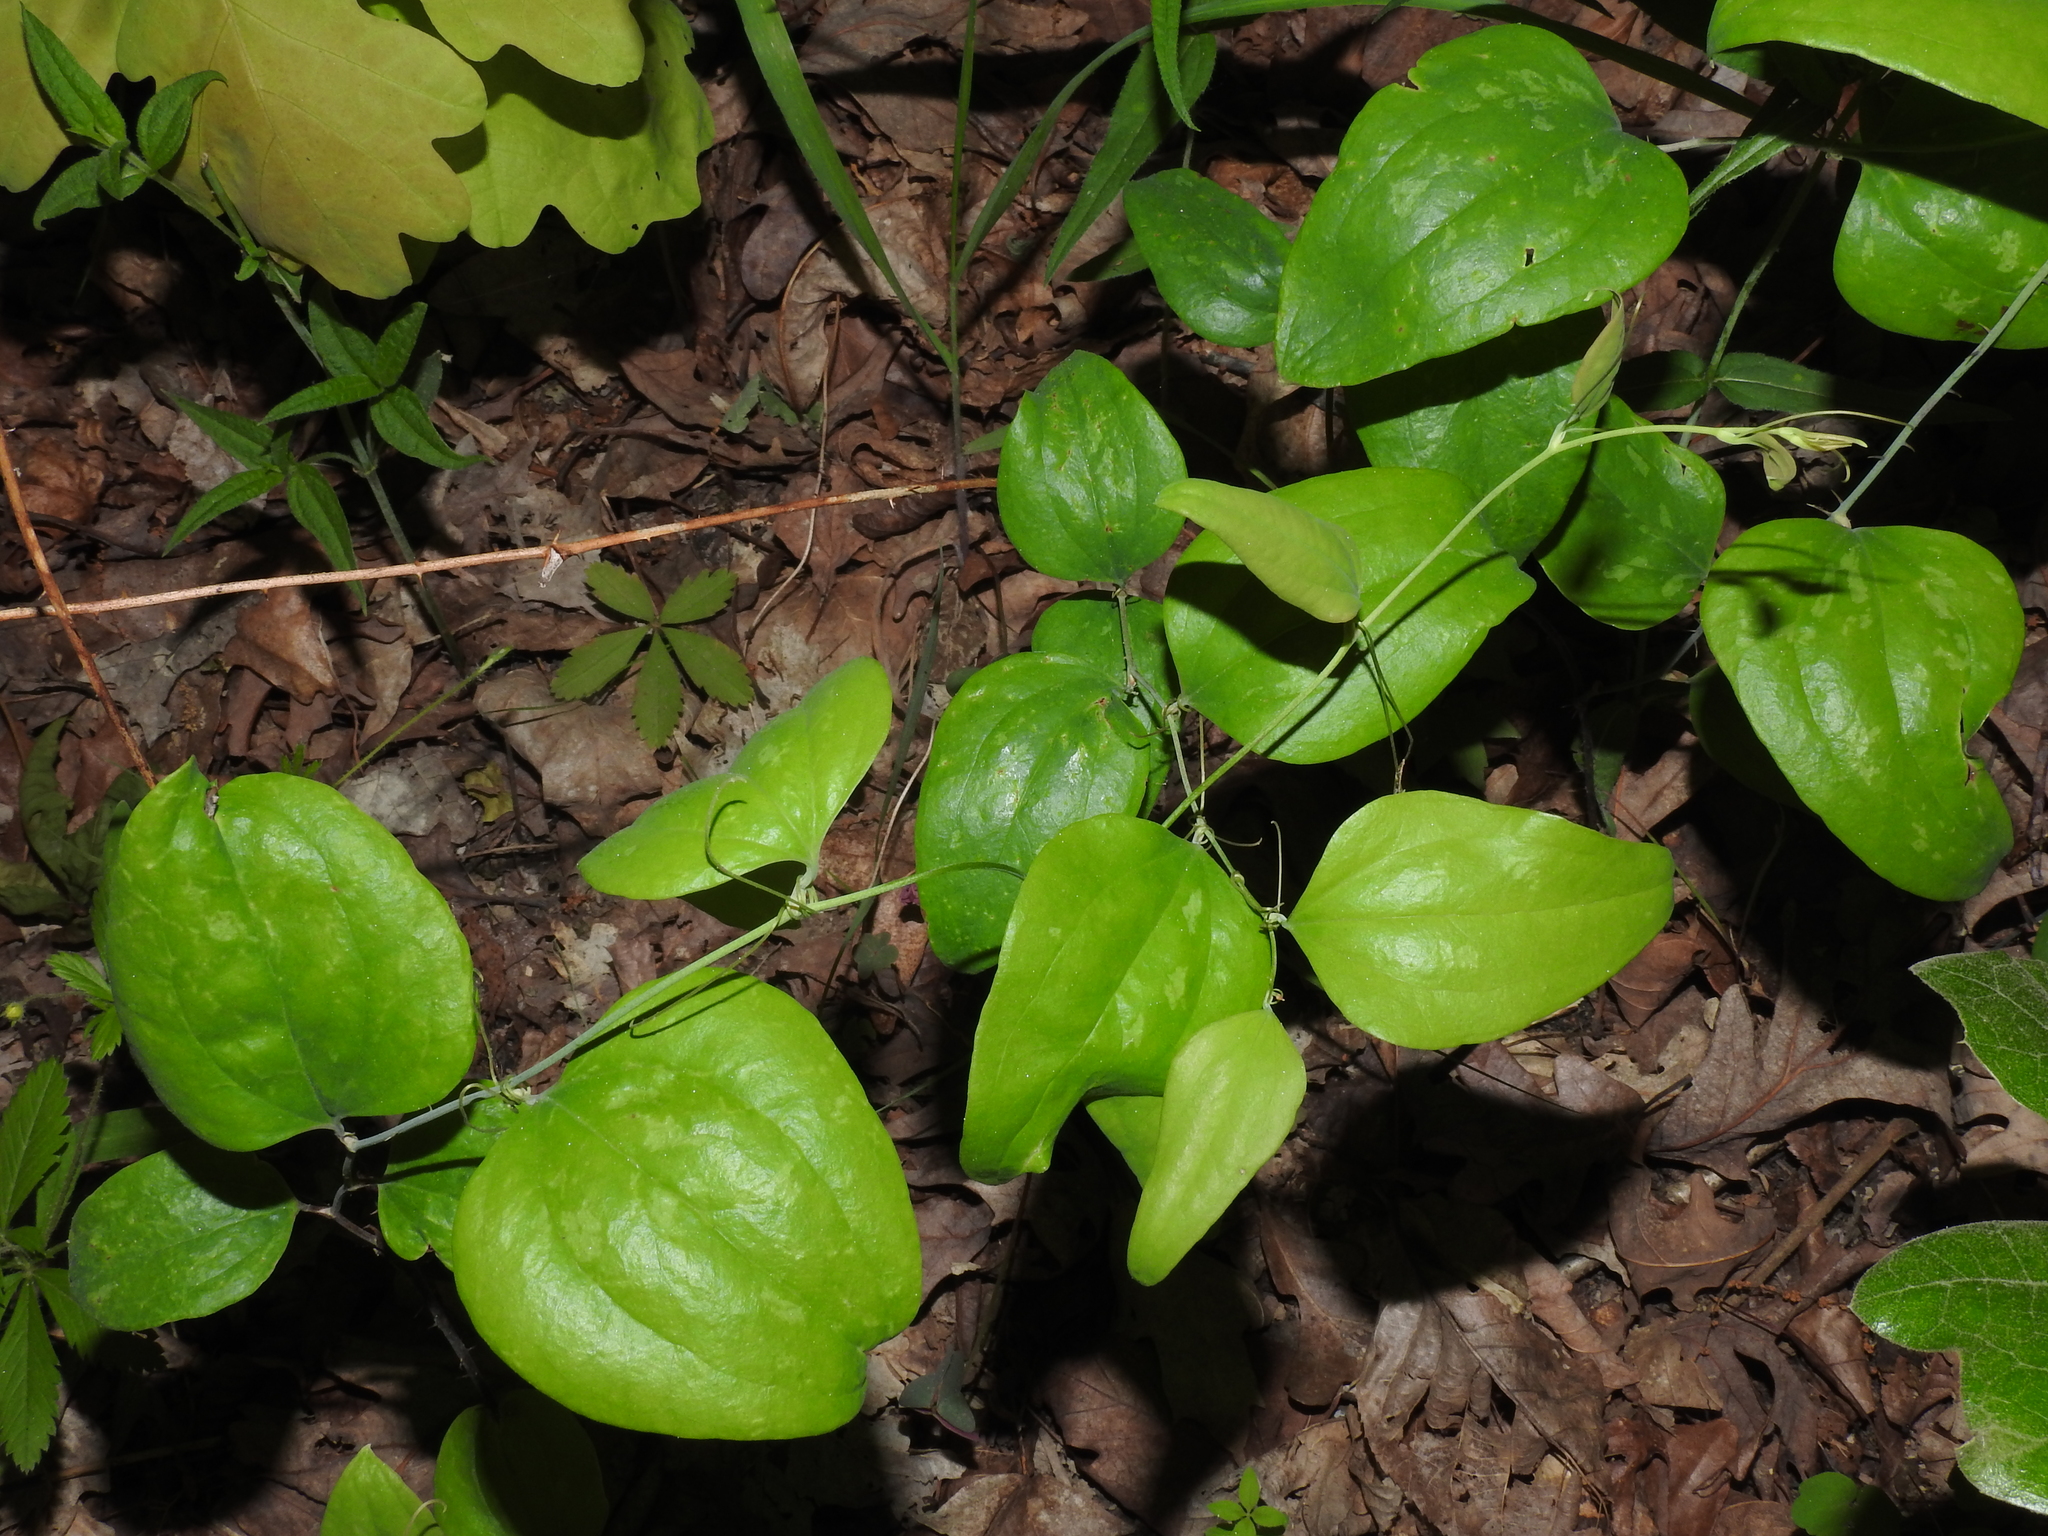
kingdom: Plantae
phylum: Tracheophyta
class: Liliopsida
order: Liliales
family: Smilacaceae
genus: Smilax
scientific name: Smilax glauca
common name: Cat greenbrier
